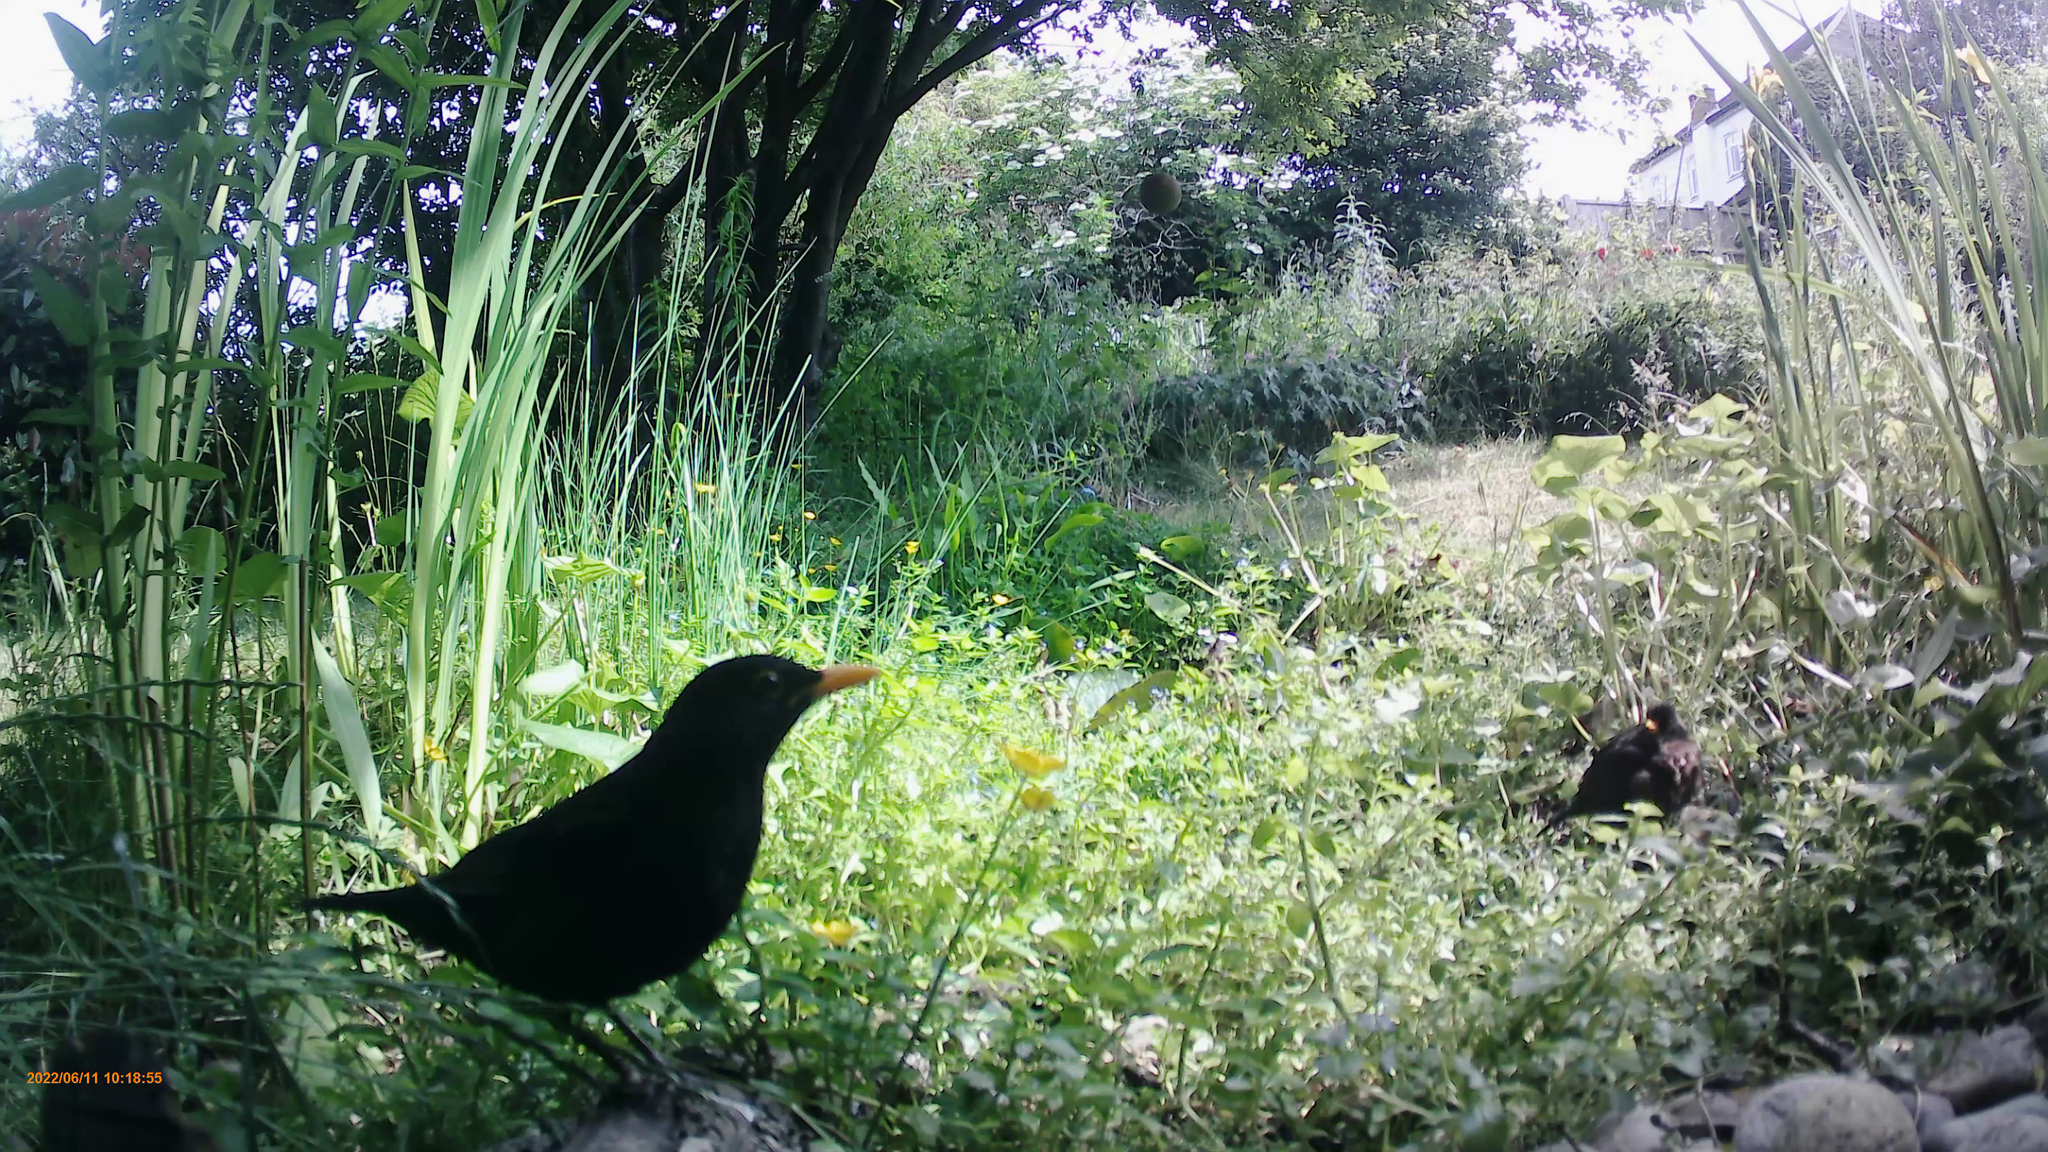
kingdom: Animalia
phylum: Chordata
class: Aves
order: Passeriformes
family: Turdidae
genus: Turdus
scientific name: Turdus merula
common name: Common blackbird
